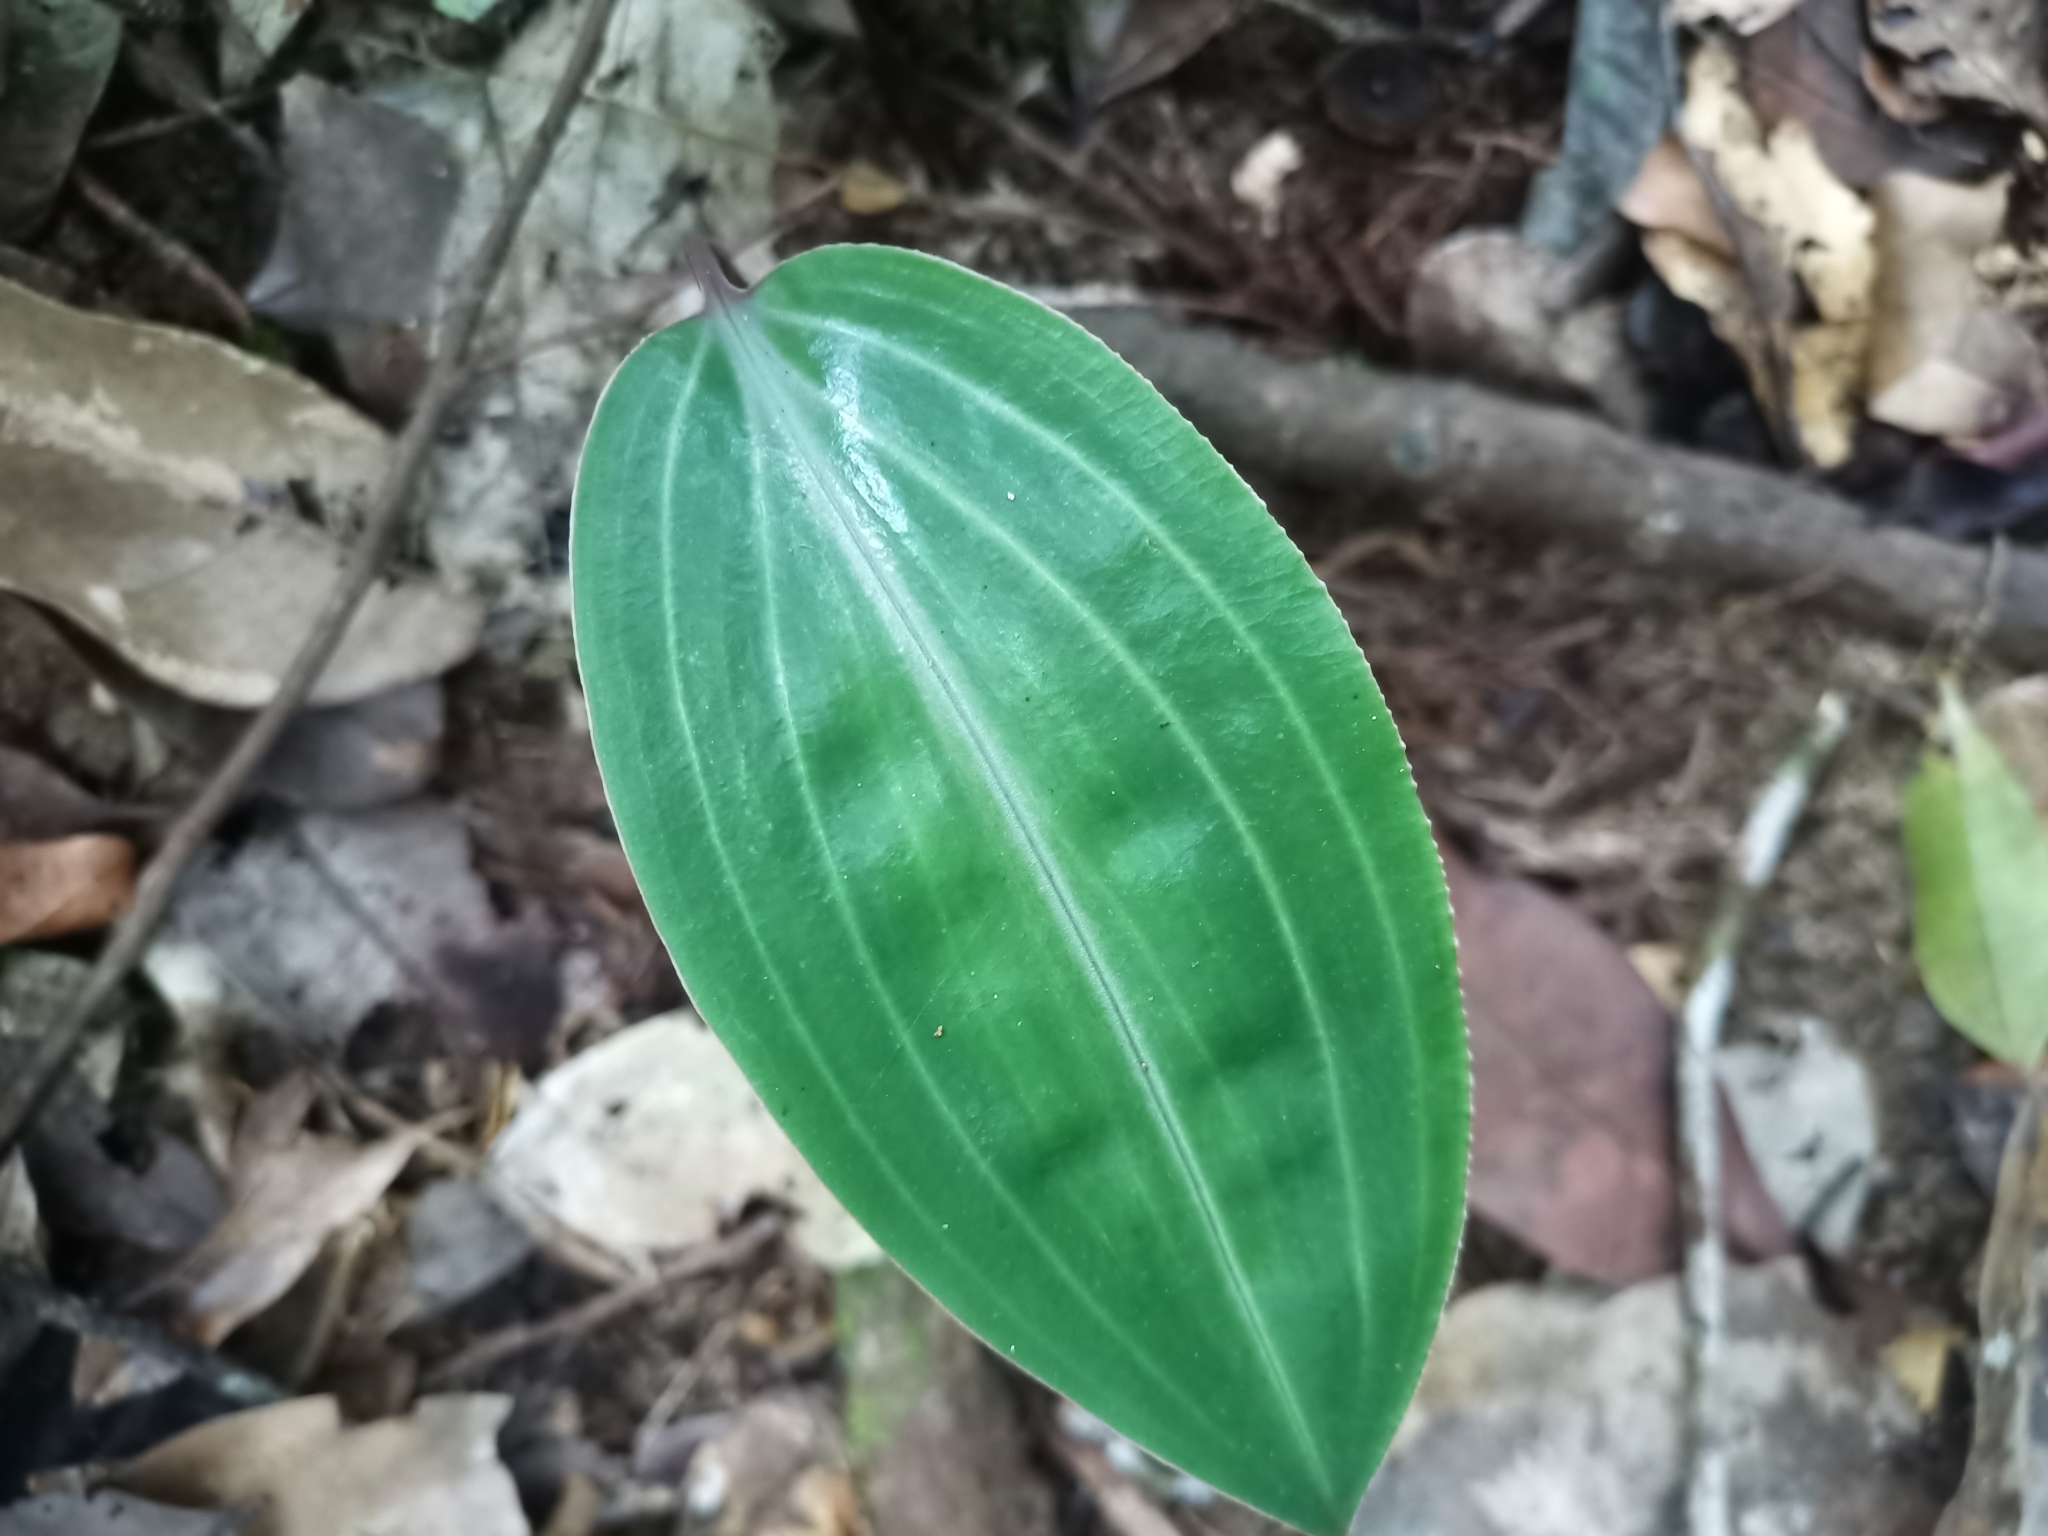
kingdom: Plantae
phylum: Tracheophyta
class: Liliopsida
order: Asparagales
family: Orchidaceae
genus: Prescottia
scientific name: Prescottia stachyodes
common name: Mountain prescott orchid
